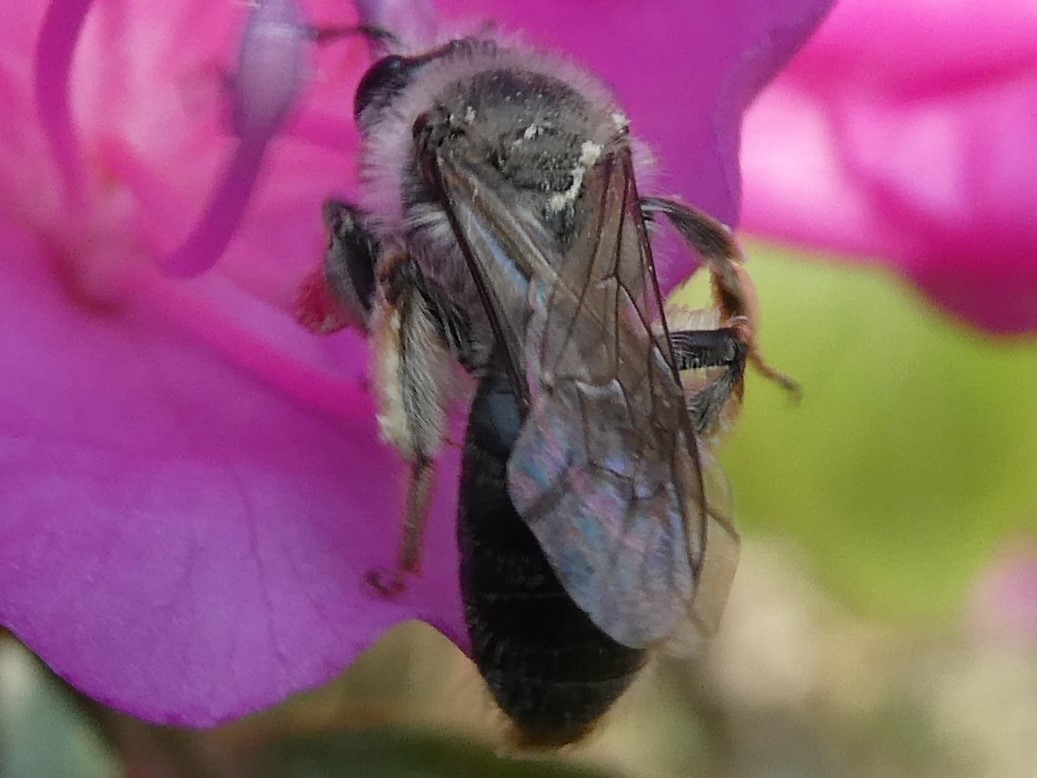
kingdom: Animalia
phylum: Arthropoda
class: Insecta
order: Hymenoptera
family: Andrenidae
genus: Andrena
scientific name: Andrena rufosignata
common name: Brown-fovea miner
